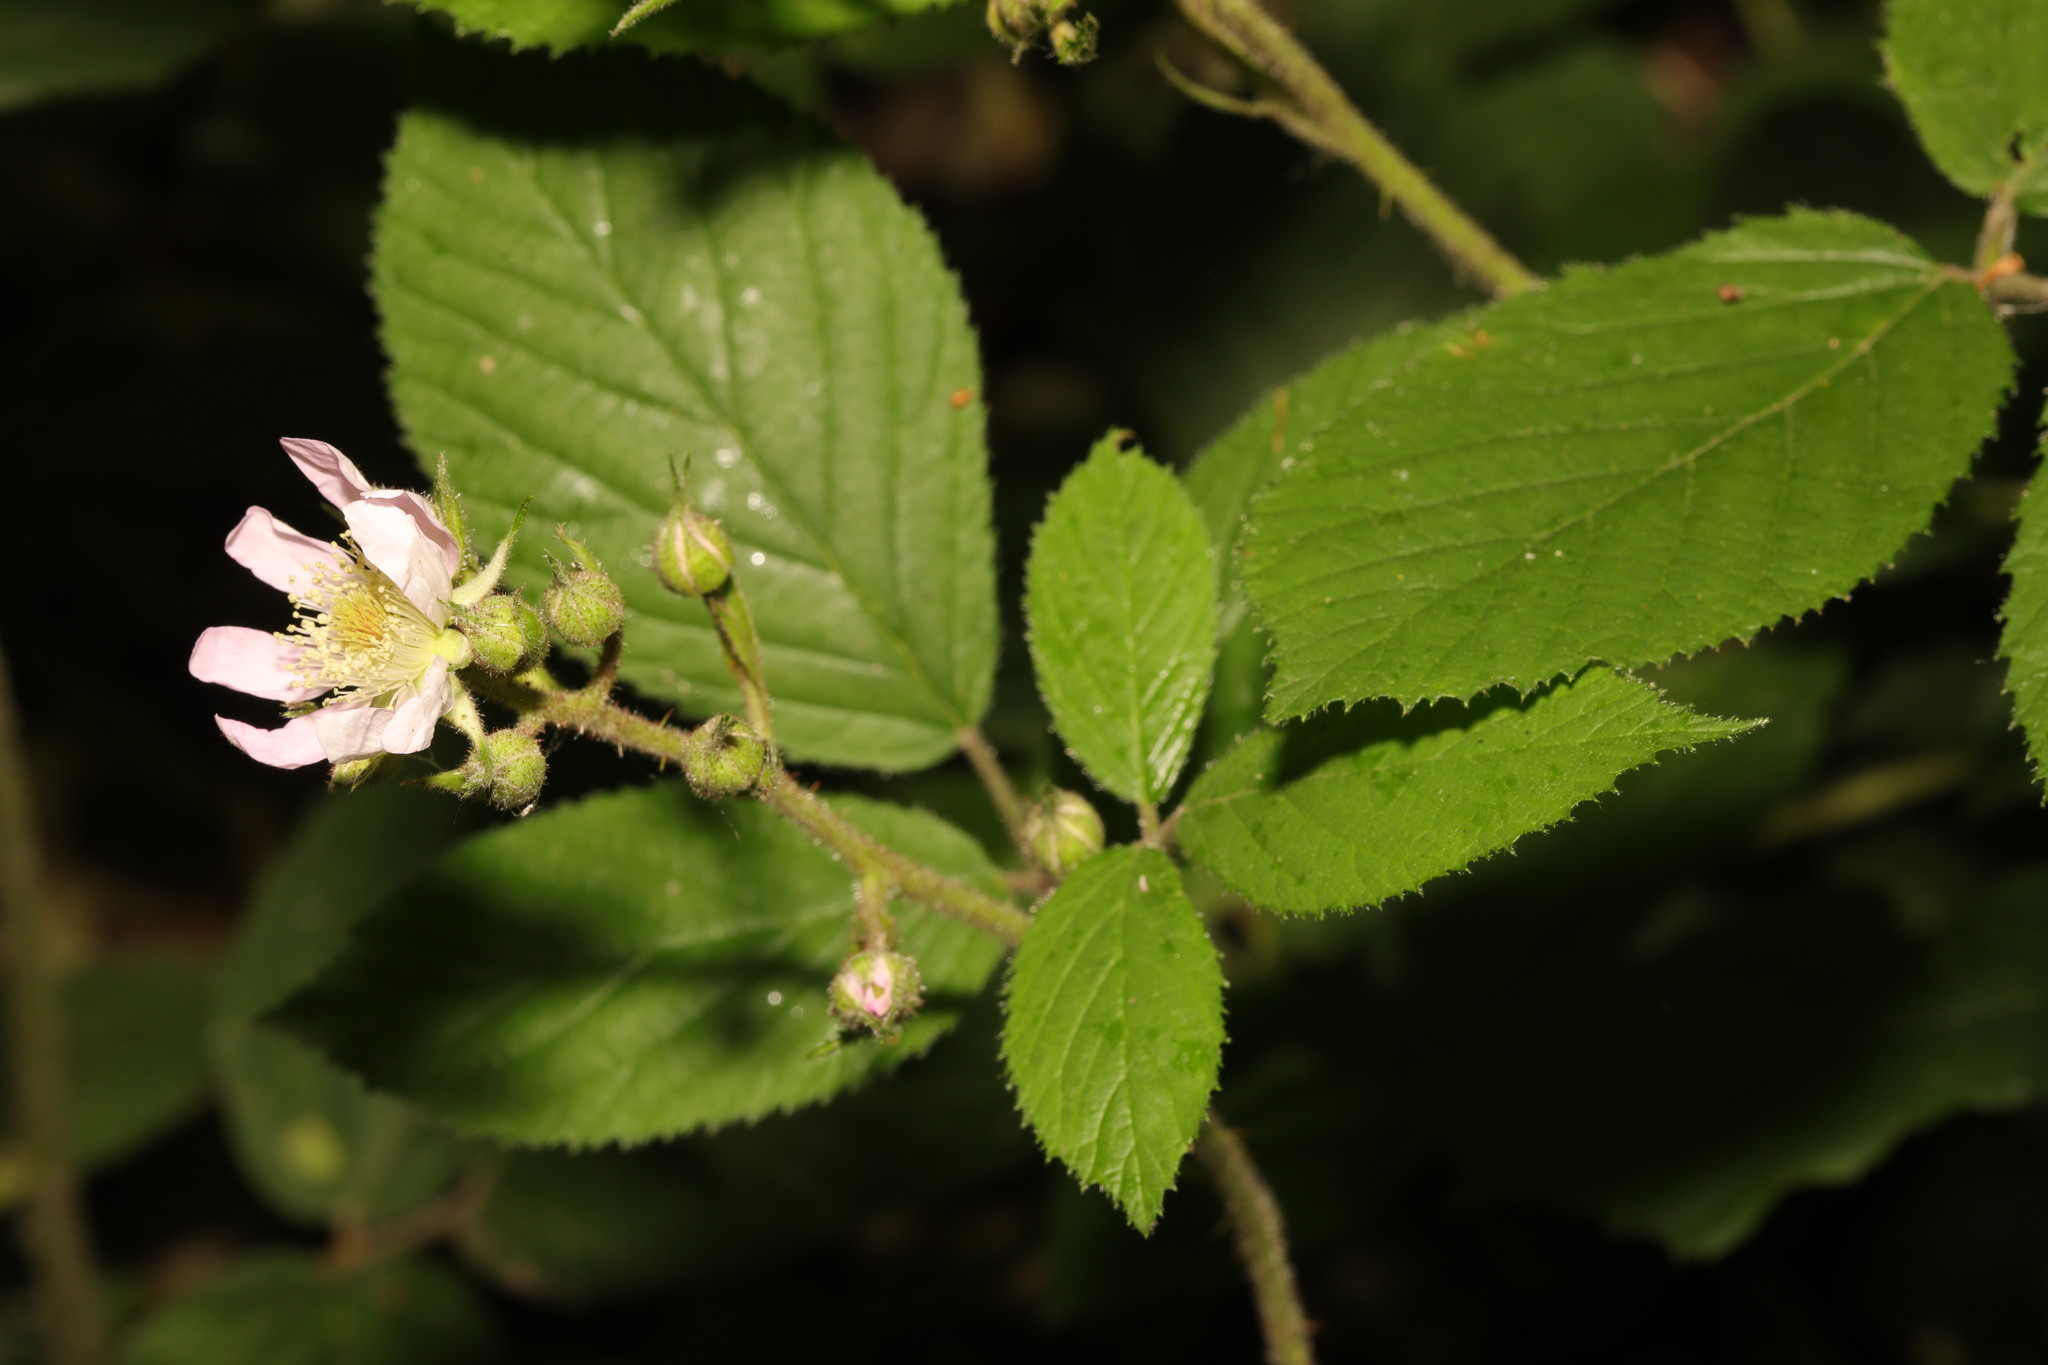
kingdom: Plantae
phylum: Tracheophyta
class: Magnoliopsida
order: Rosales
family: Rosaceae
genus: Rubus
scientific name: Rubus rufescens
